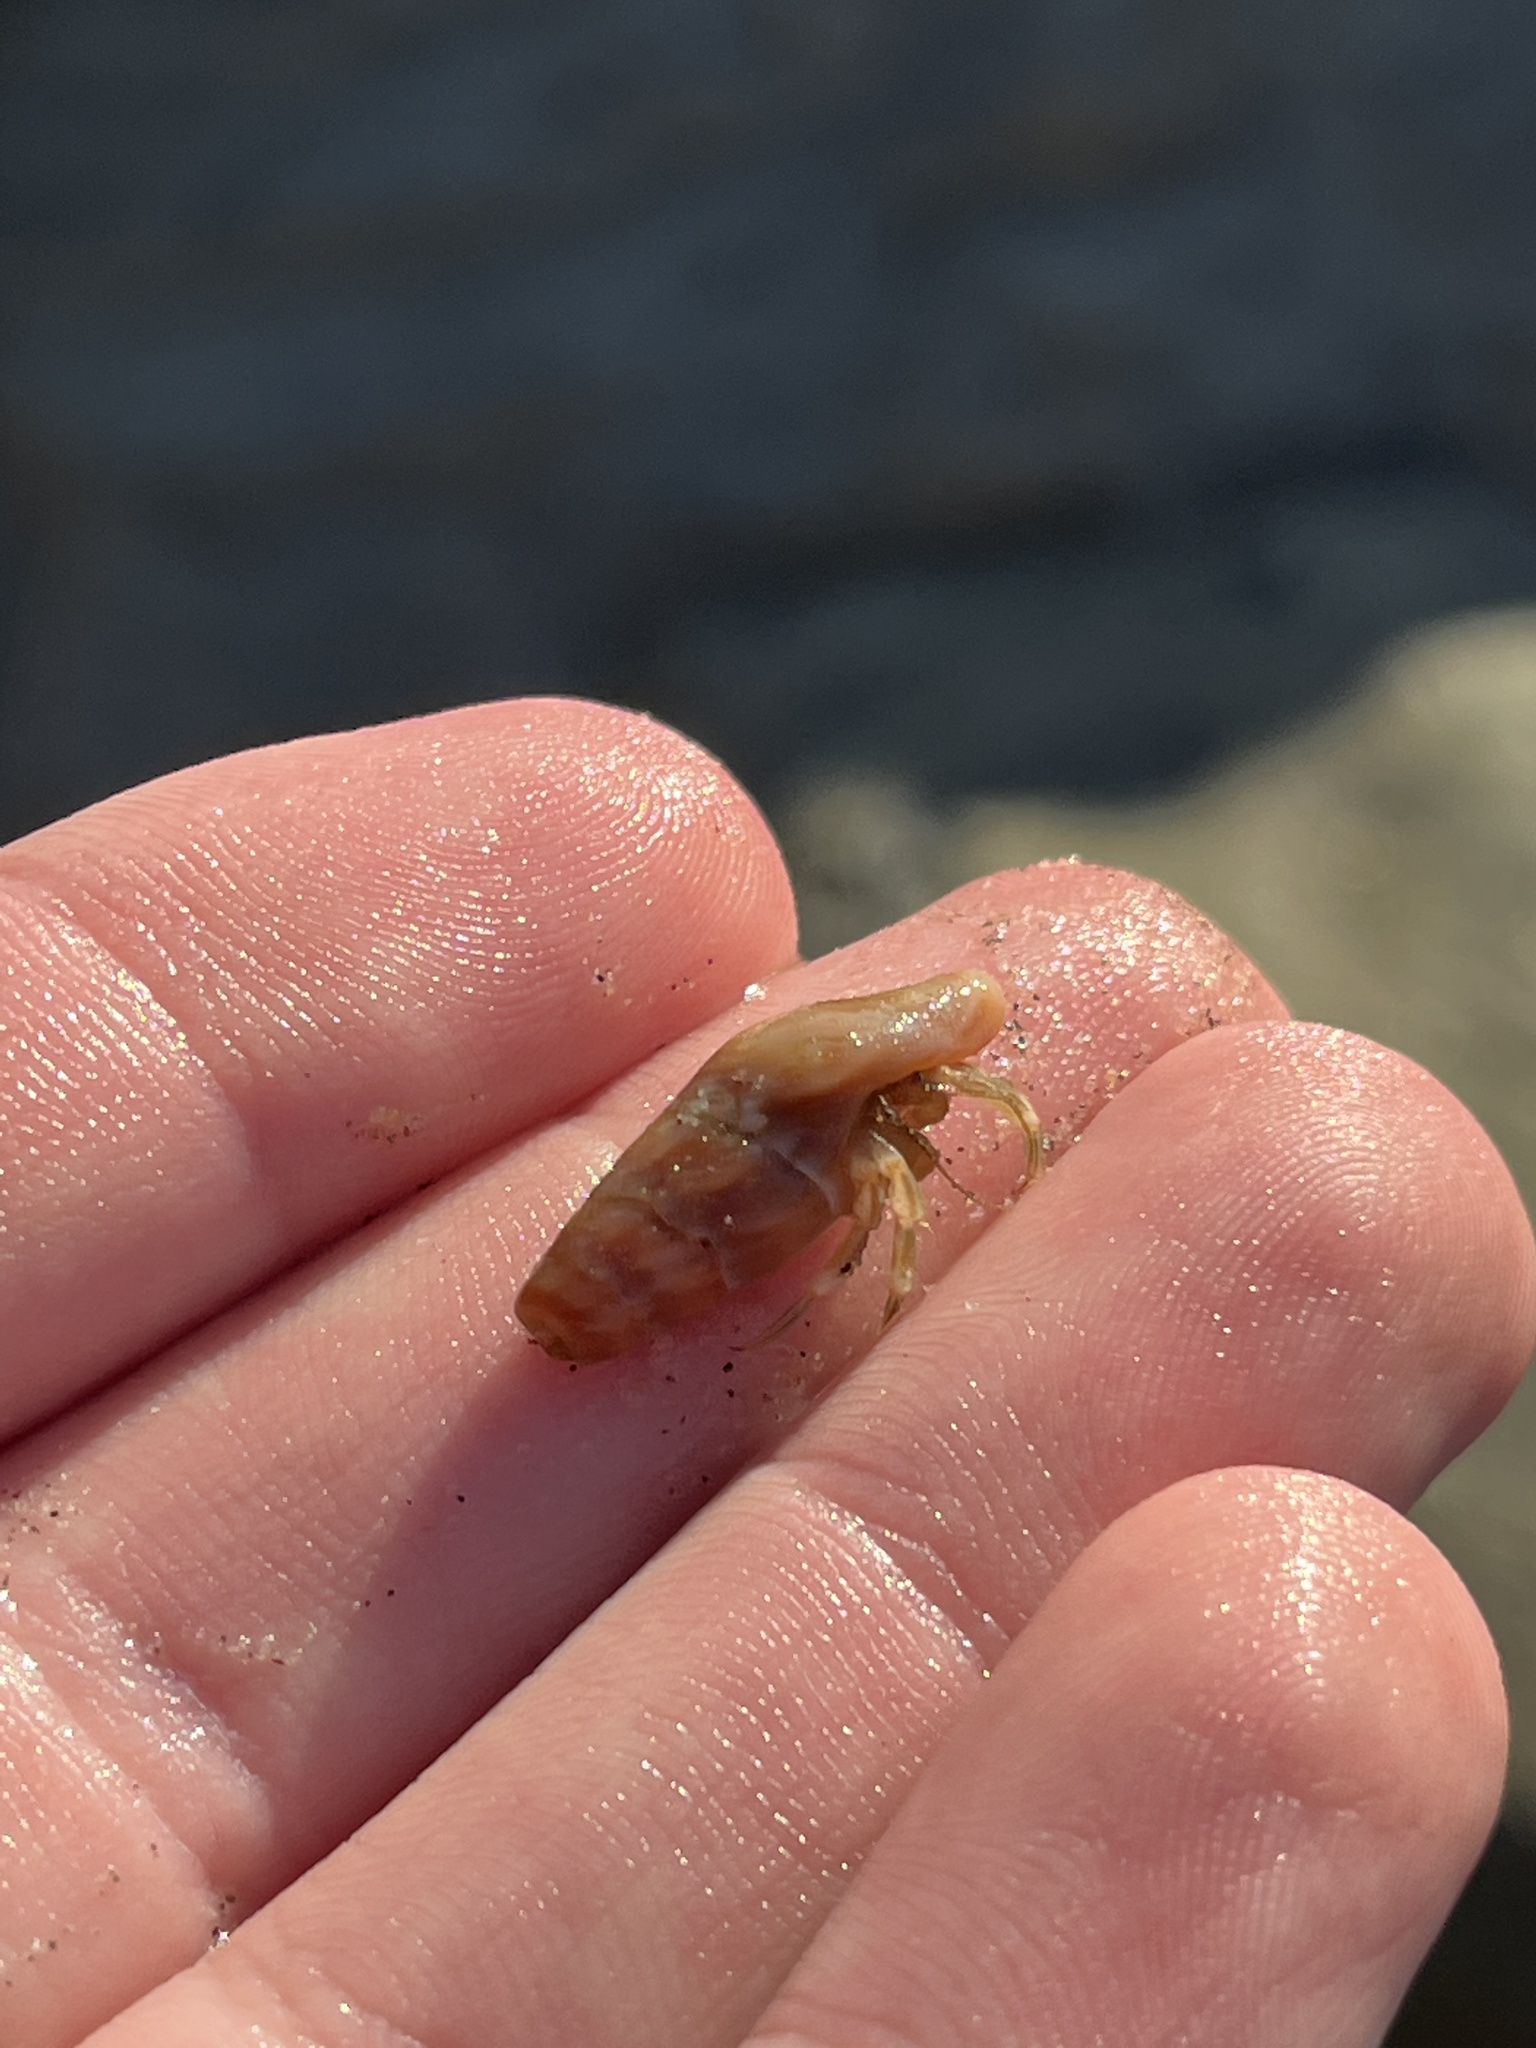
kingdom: Animalia
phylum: Arthropoda
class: Malacostraca
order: Decapoda
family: Paguridae
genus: Pagurus
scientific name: Pagurus venturensis
